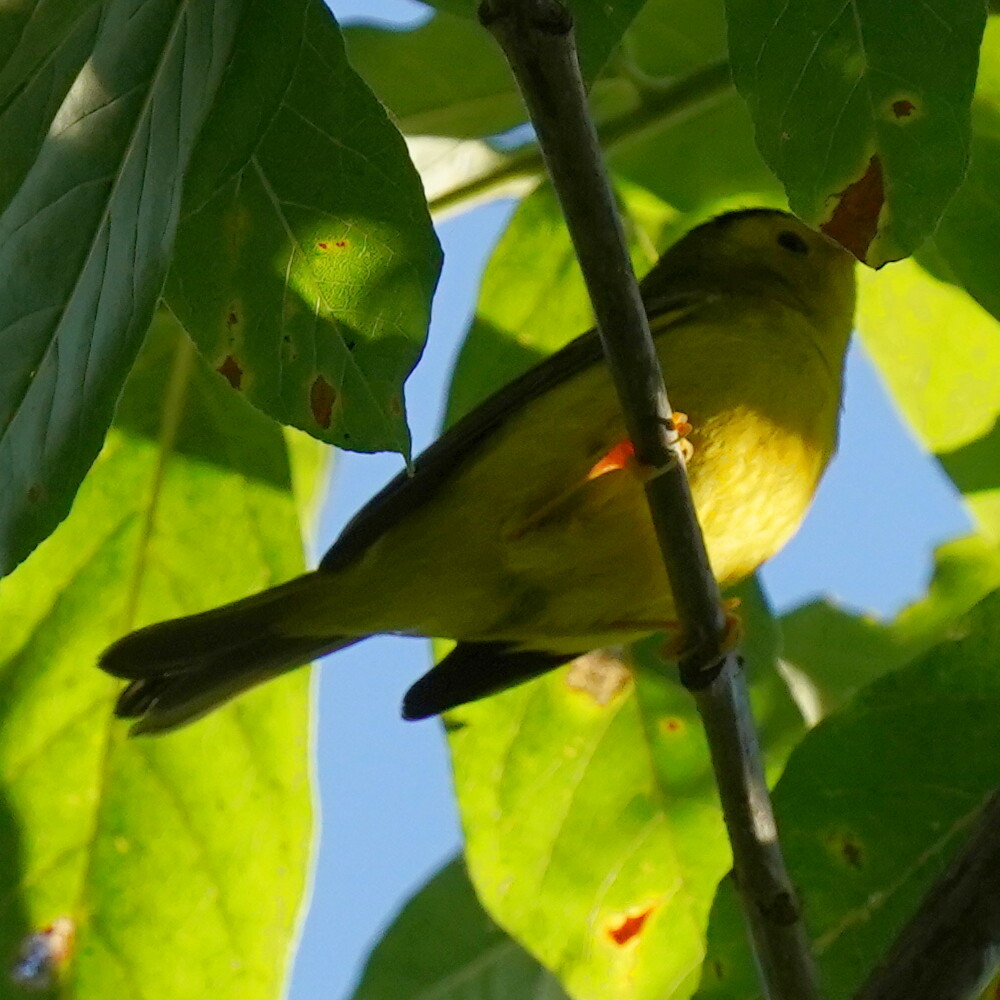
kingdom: Animalia
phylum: Chordata
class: Aves
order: Passeriformes
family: Parulidae
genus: Cardellina
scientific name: Cardellina pusilla
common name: Wilson's warbler
